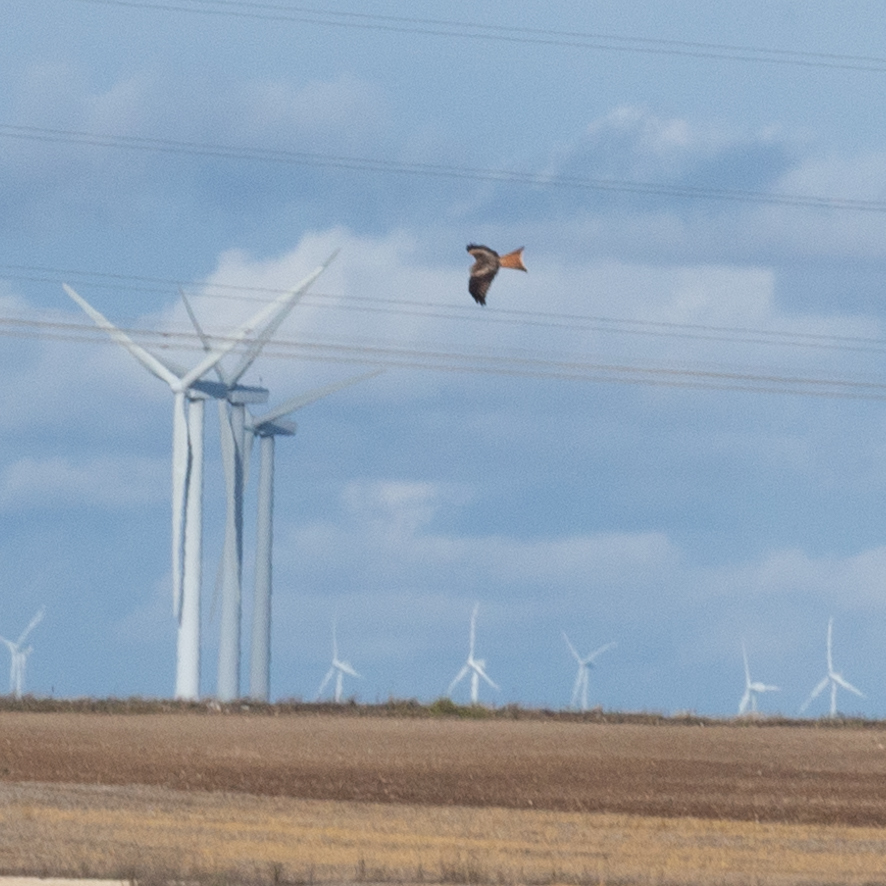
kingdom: Animalia
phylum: Chordata
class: Aves
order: Accipitriformes
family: Accipitridae
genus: Milvus
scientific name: Milvus milvus
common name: Red kite
